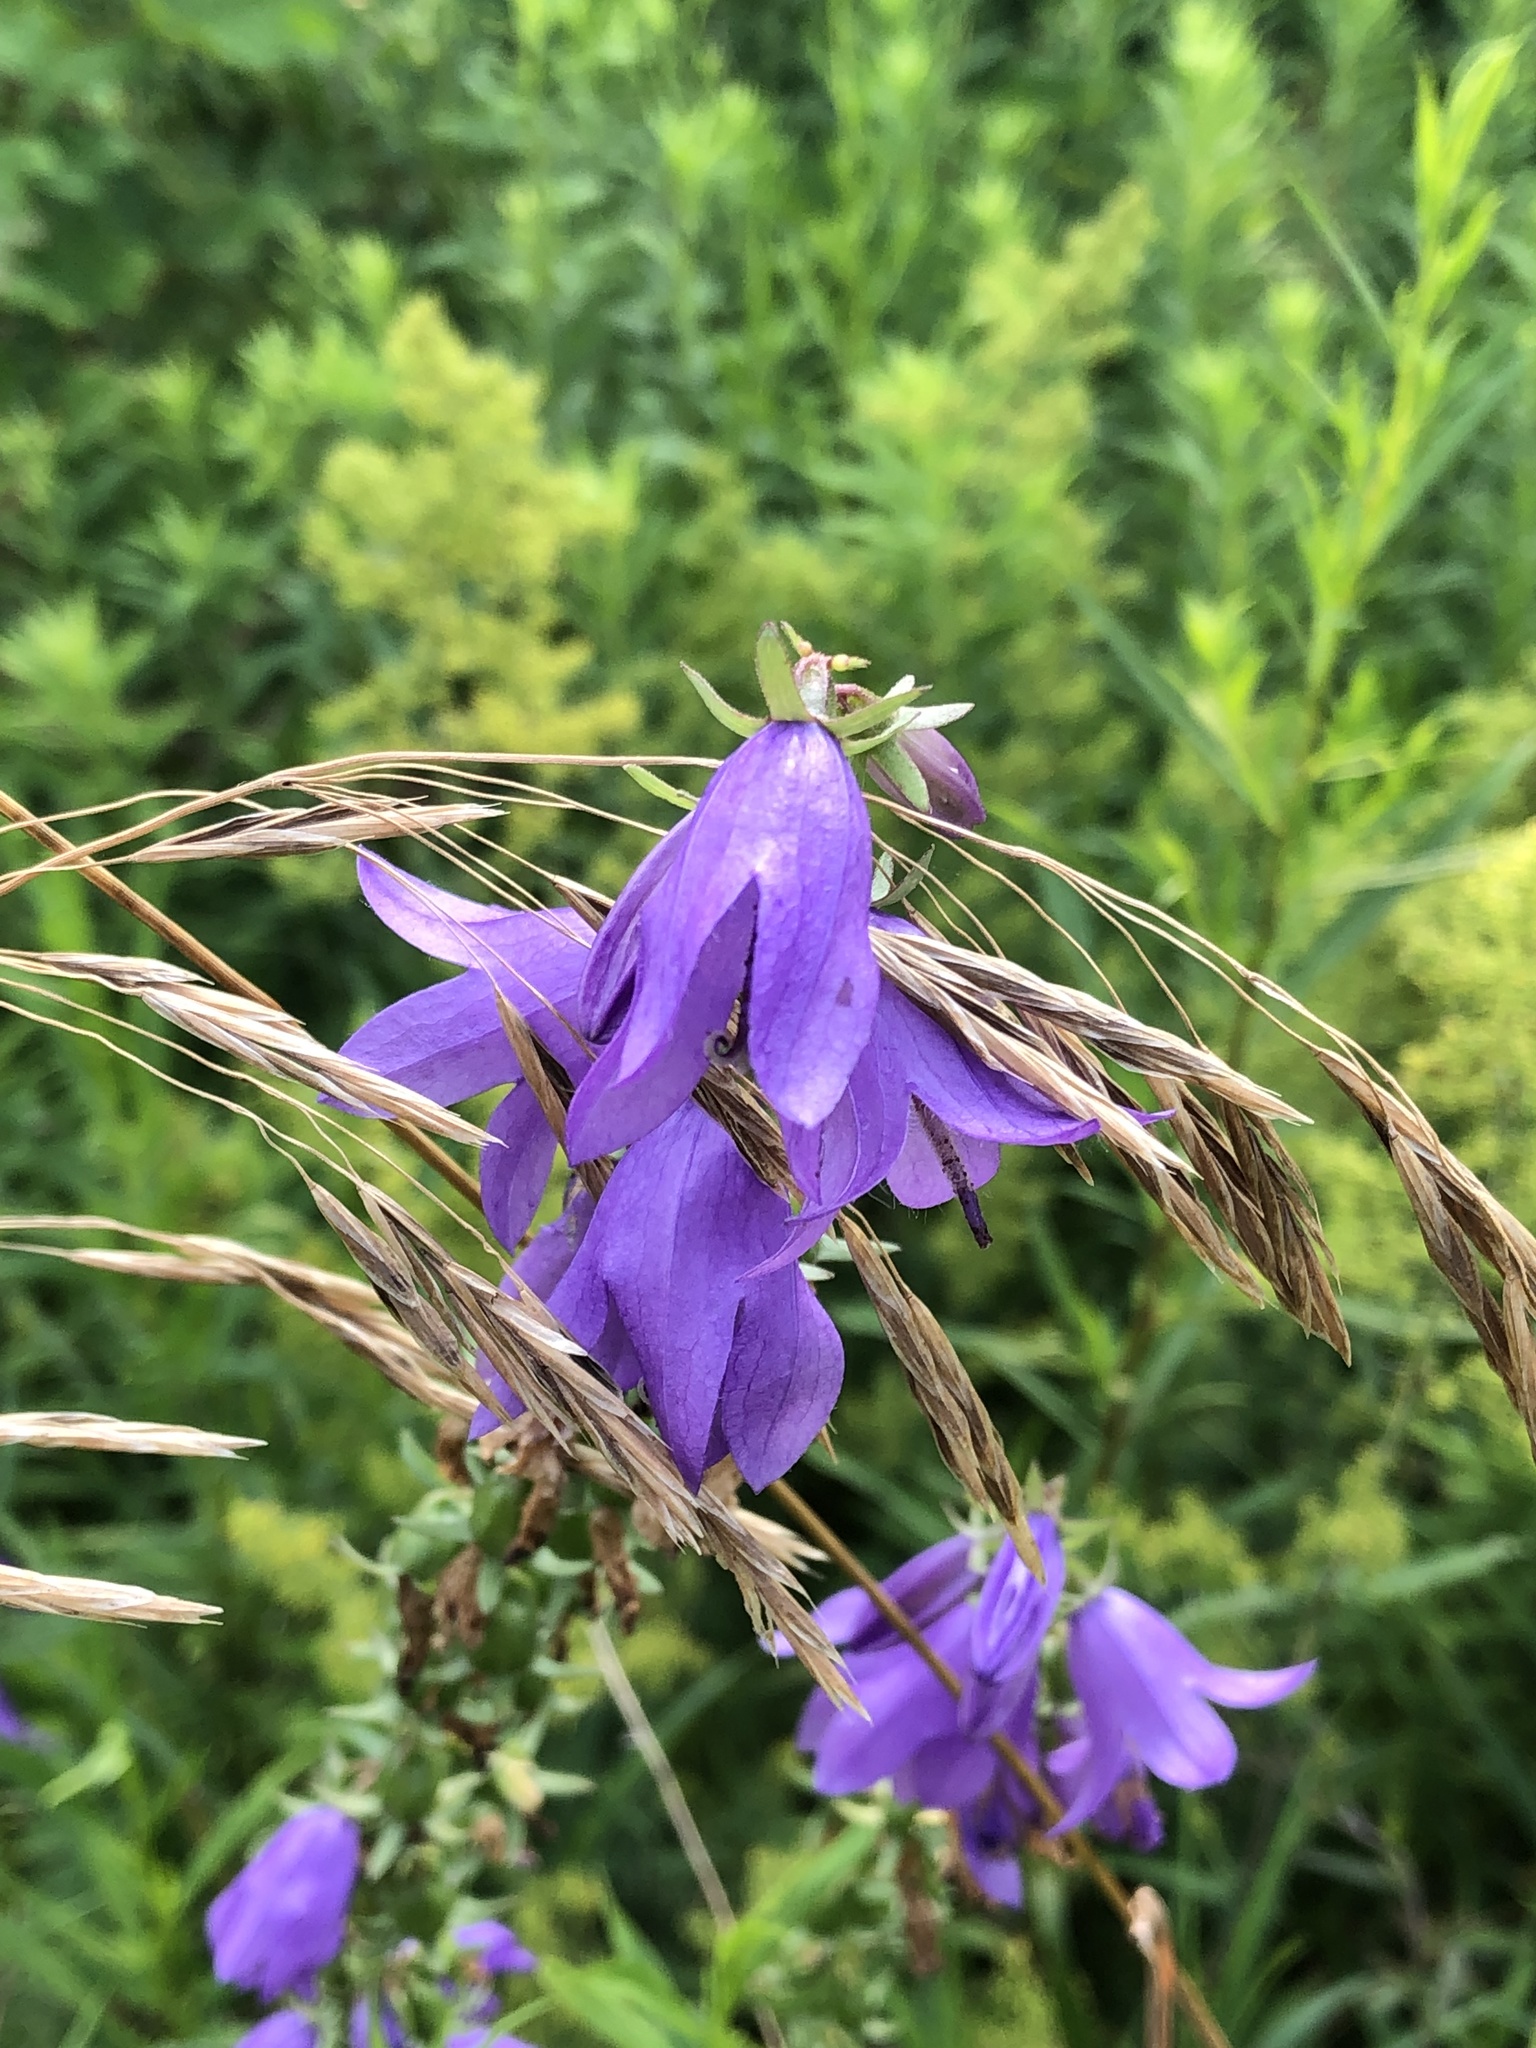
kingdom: Plantae
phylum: Tracheophyta
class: Magnoliopsida
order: Asterales
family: Campanulaceae
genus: Campanula
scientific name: Campanula rapunculoides
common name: Creeping bellflower
